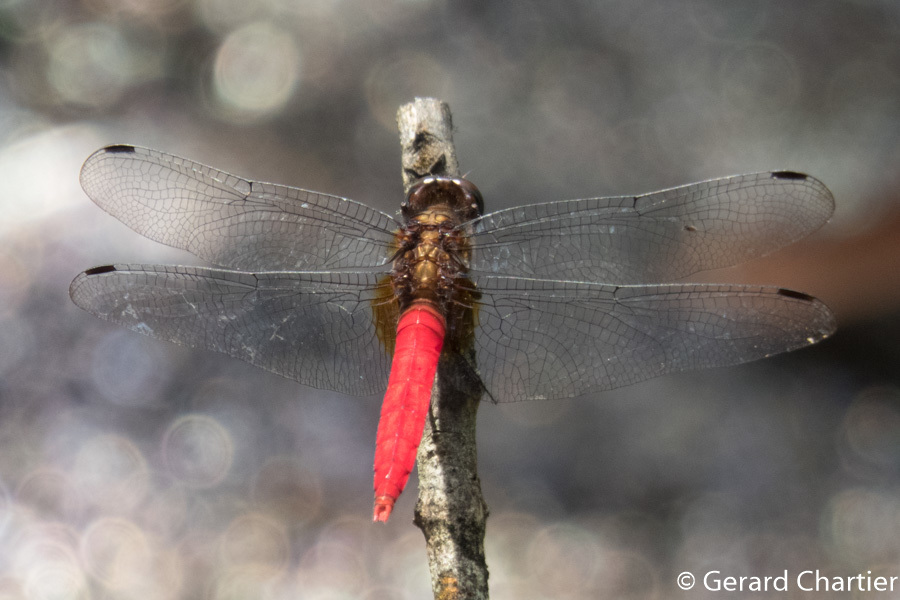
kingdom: Animalia
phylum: Arthropoda
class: Insecta
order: Odonata
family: Libellulidae
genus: Orthetrum
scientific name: Orthetrum chrysis
